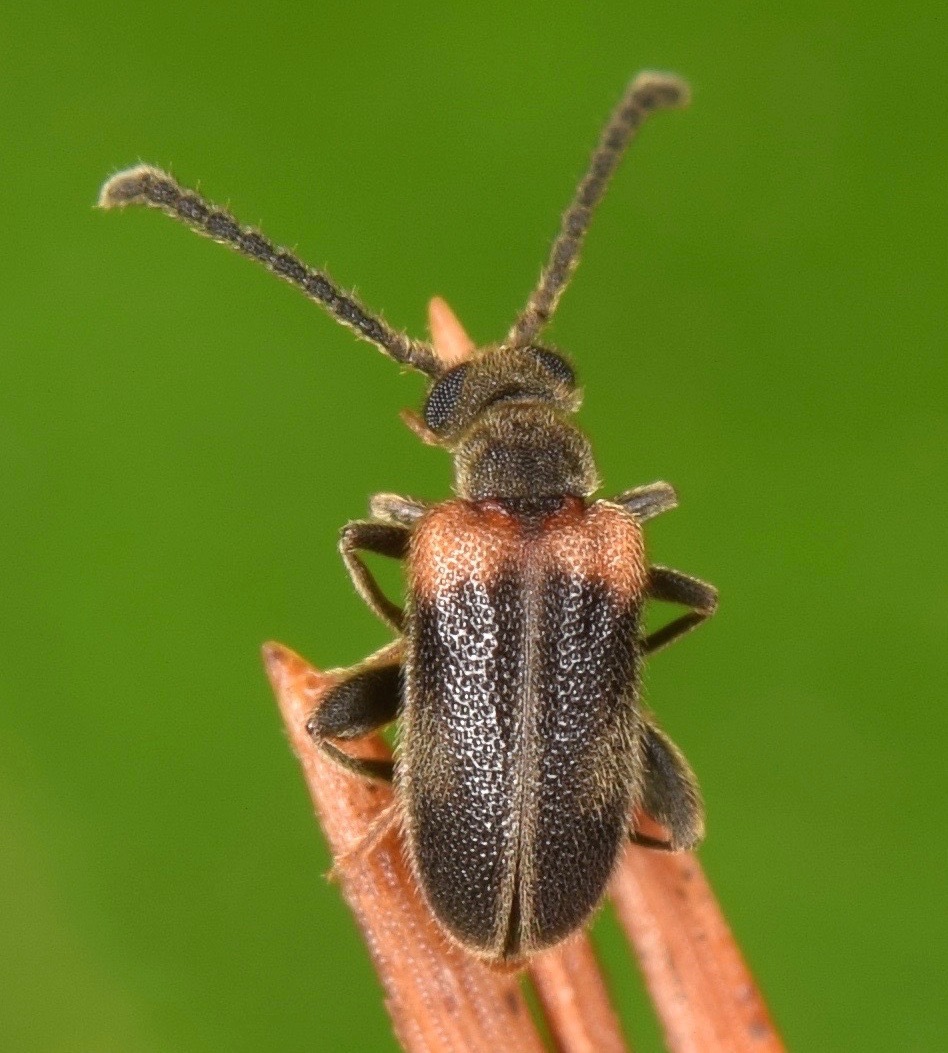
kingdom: Animalia
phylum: Arthropoda
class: Insecta
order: Coleoptera
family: Aderidae
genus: Elonus
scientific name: Elonus basalis
